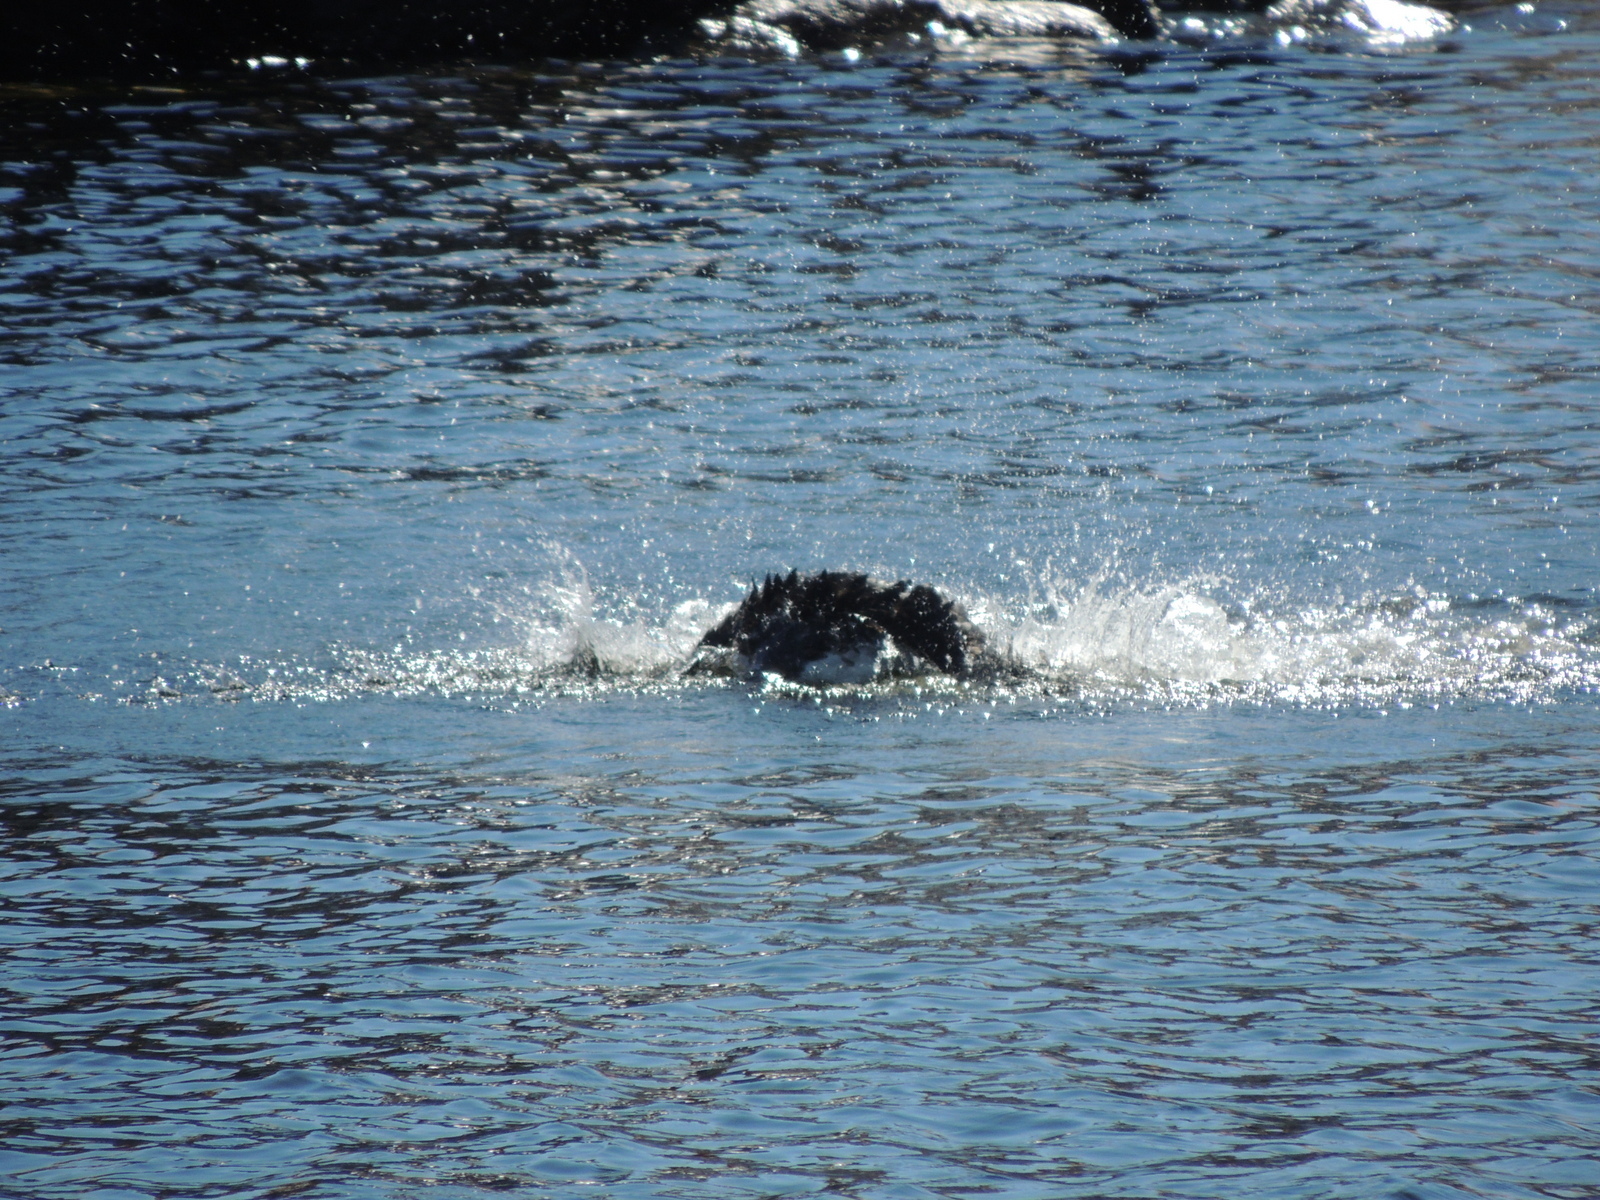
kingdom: Animalia
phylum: Chordata
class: Aves
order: Suliformes
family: Phalacrocoracidae
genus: Phalacrocorax
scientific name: Phalacrocorax fuscescens
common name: Black-faced cormorant
